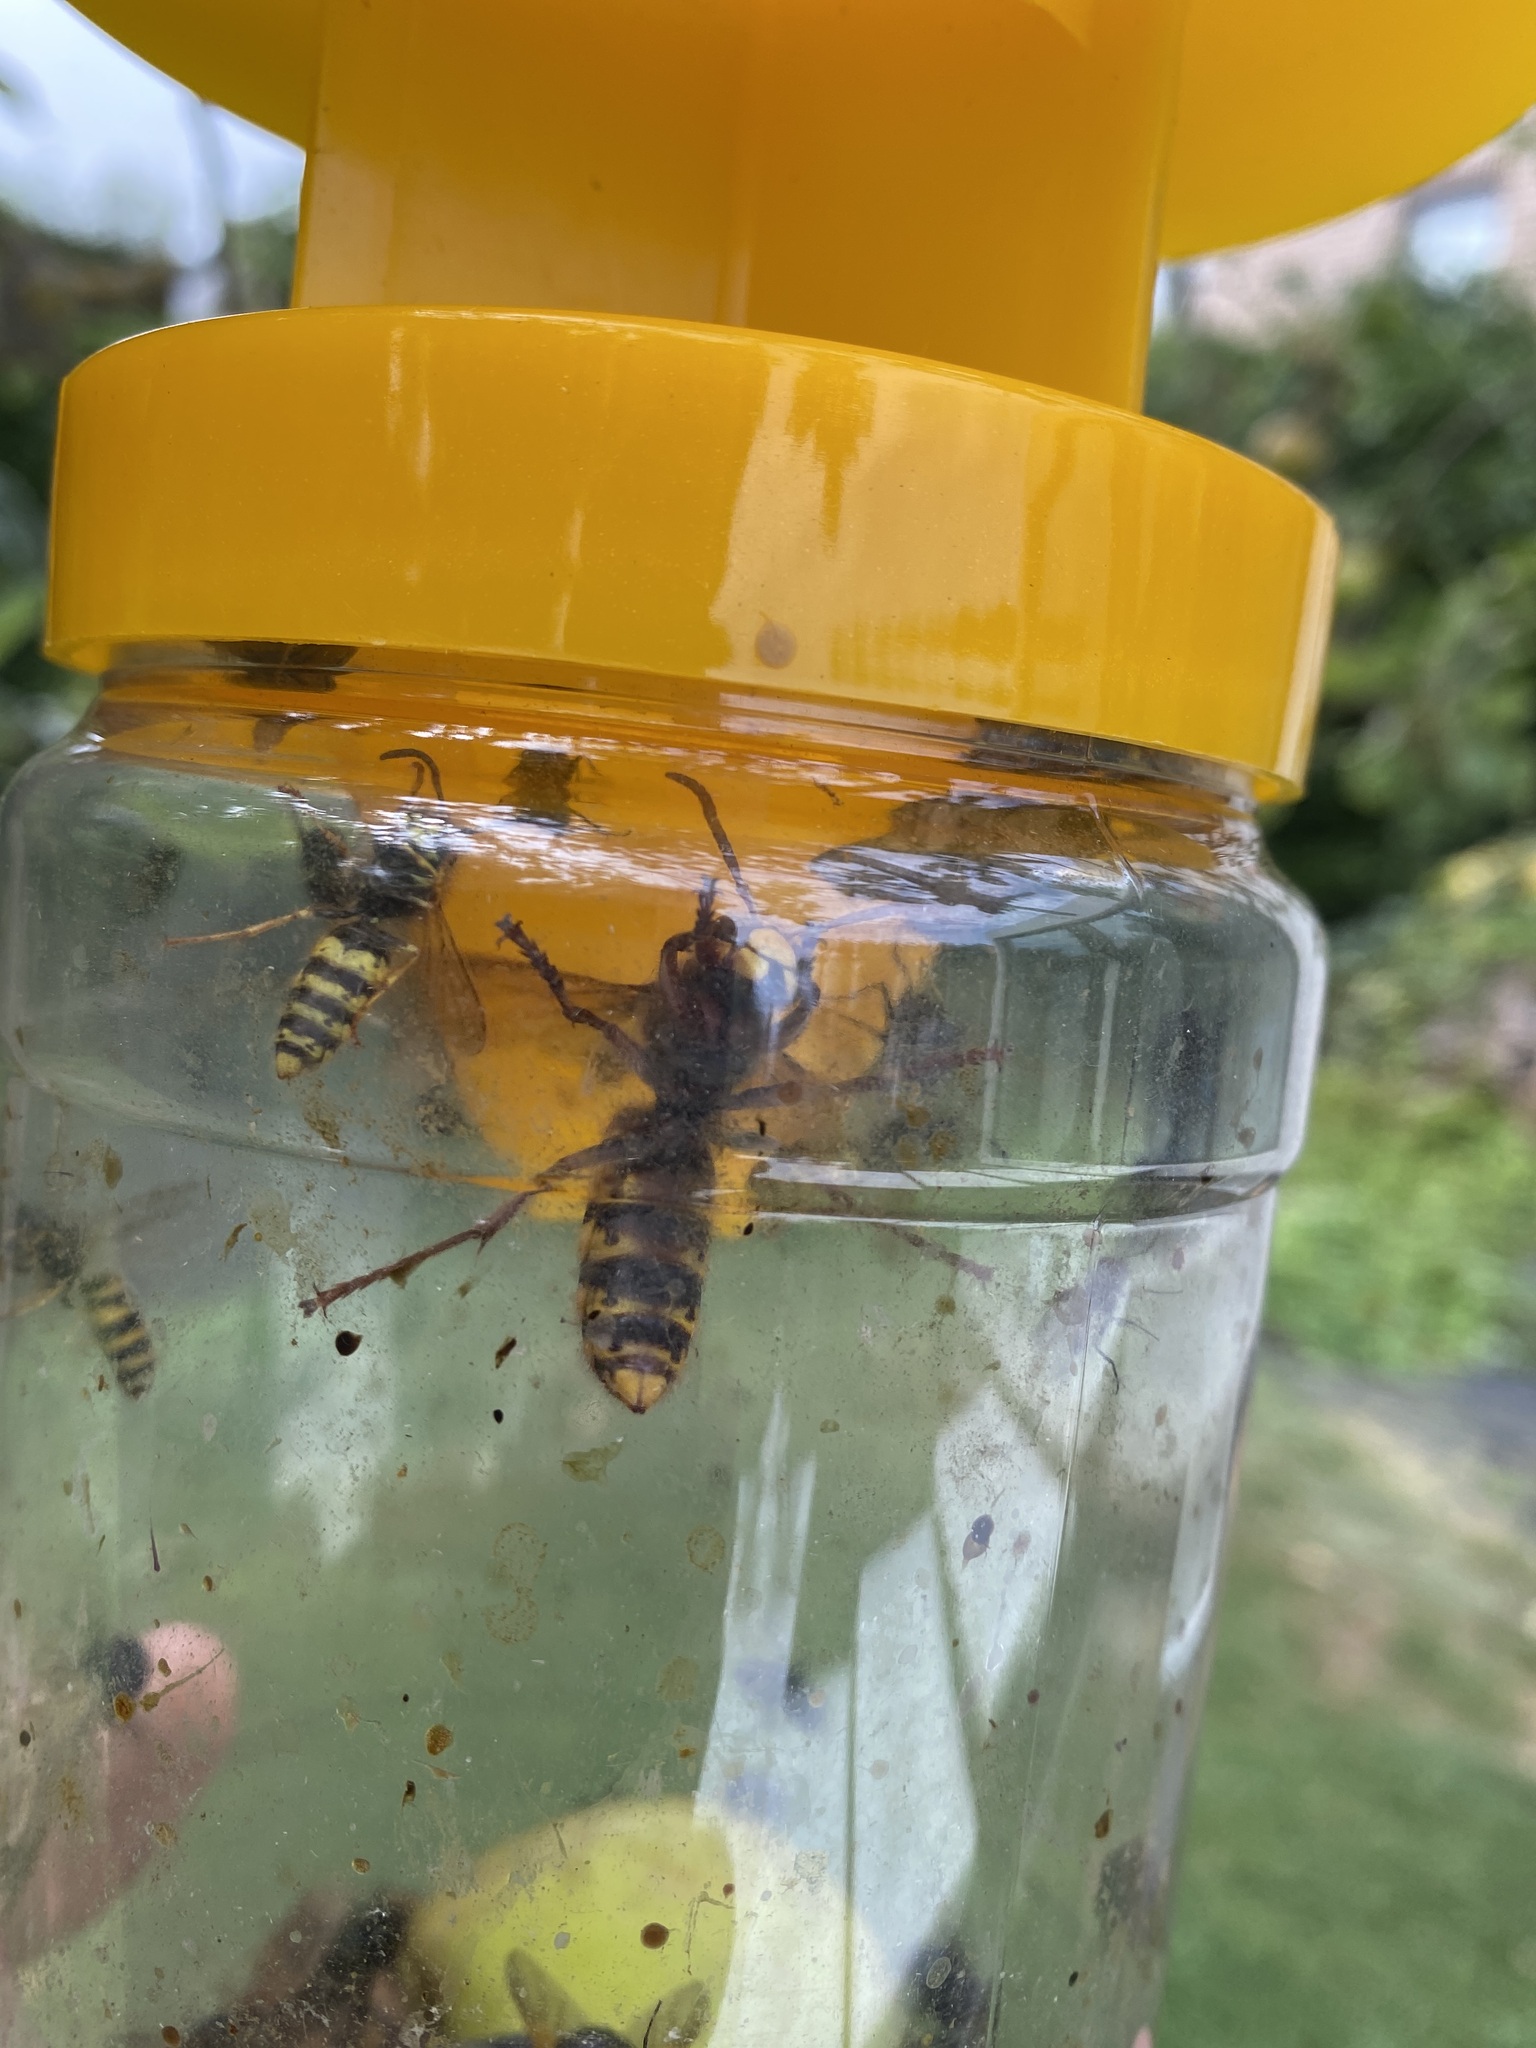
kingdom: Animalia
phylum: Arthropoda
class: Insecta
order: Hymenoptera
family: Vespidae
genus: Vespa
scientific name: Vespa crabro
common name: Hornet
